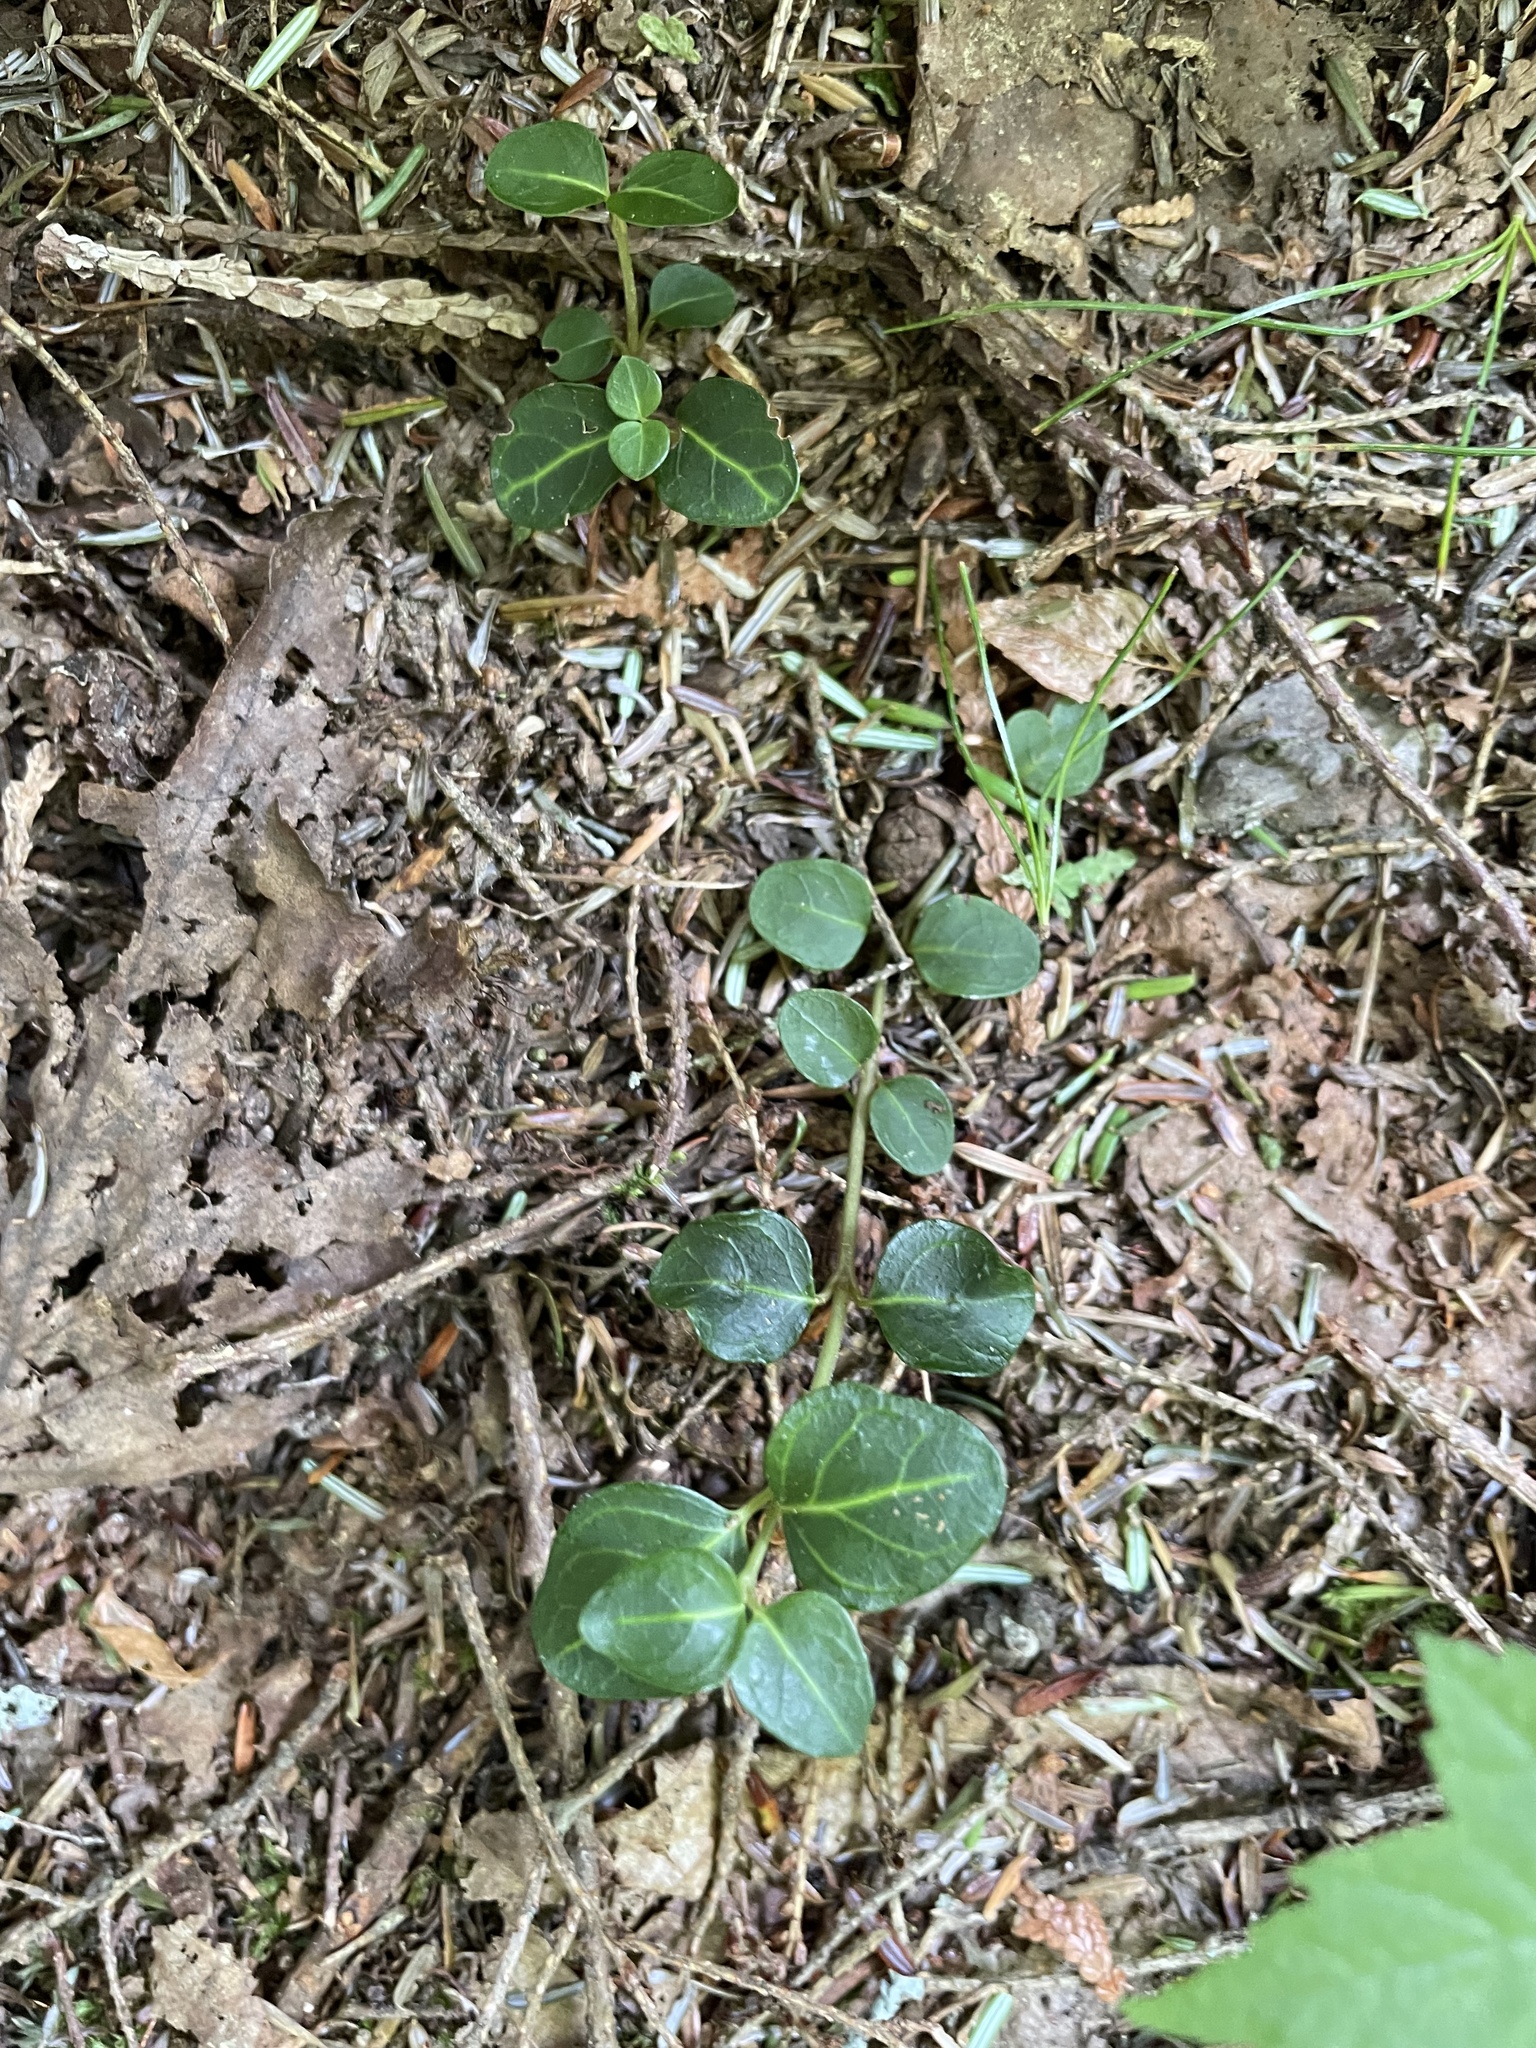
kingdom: Plantae
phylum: Tracheophyta
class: Magnoliopsida
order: Gentianales
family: Rubiaceae
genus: Mitchella
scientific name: Mitchella repens
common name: Partridge-berry
